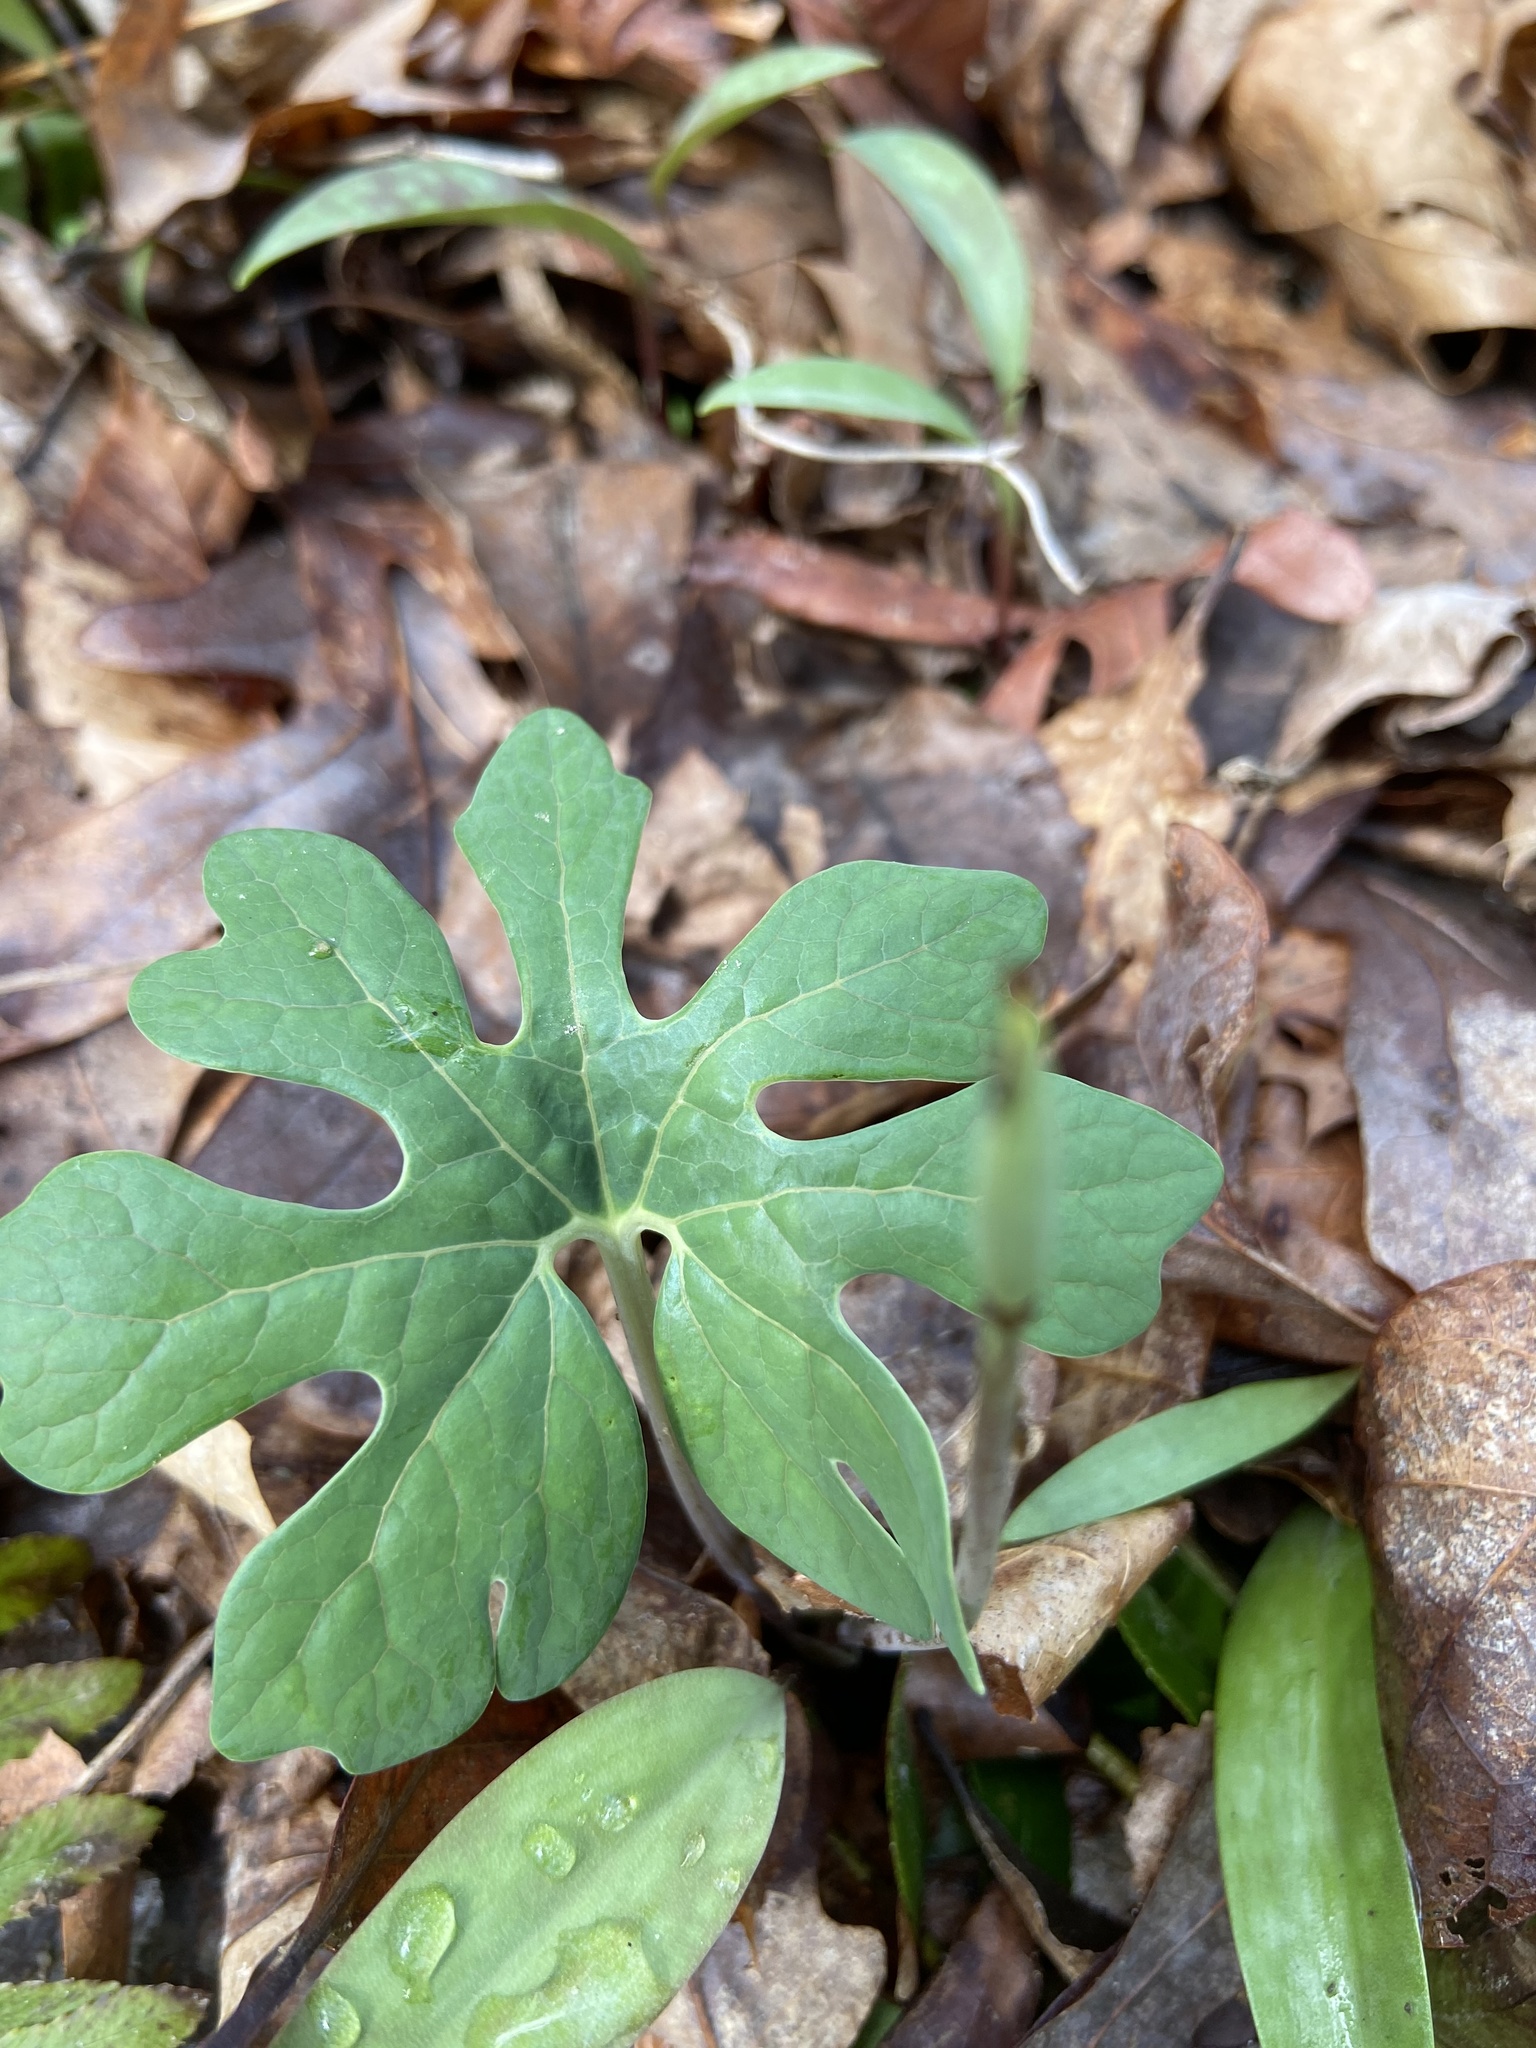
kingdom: Plantae
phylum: Tracheophyta
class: Magnoliopsida
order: Ranunculales
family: Papaveraceae
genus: Sanguinaria
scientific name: Sanguinaria canadensis
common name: Bloodroot
